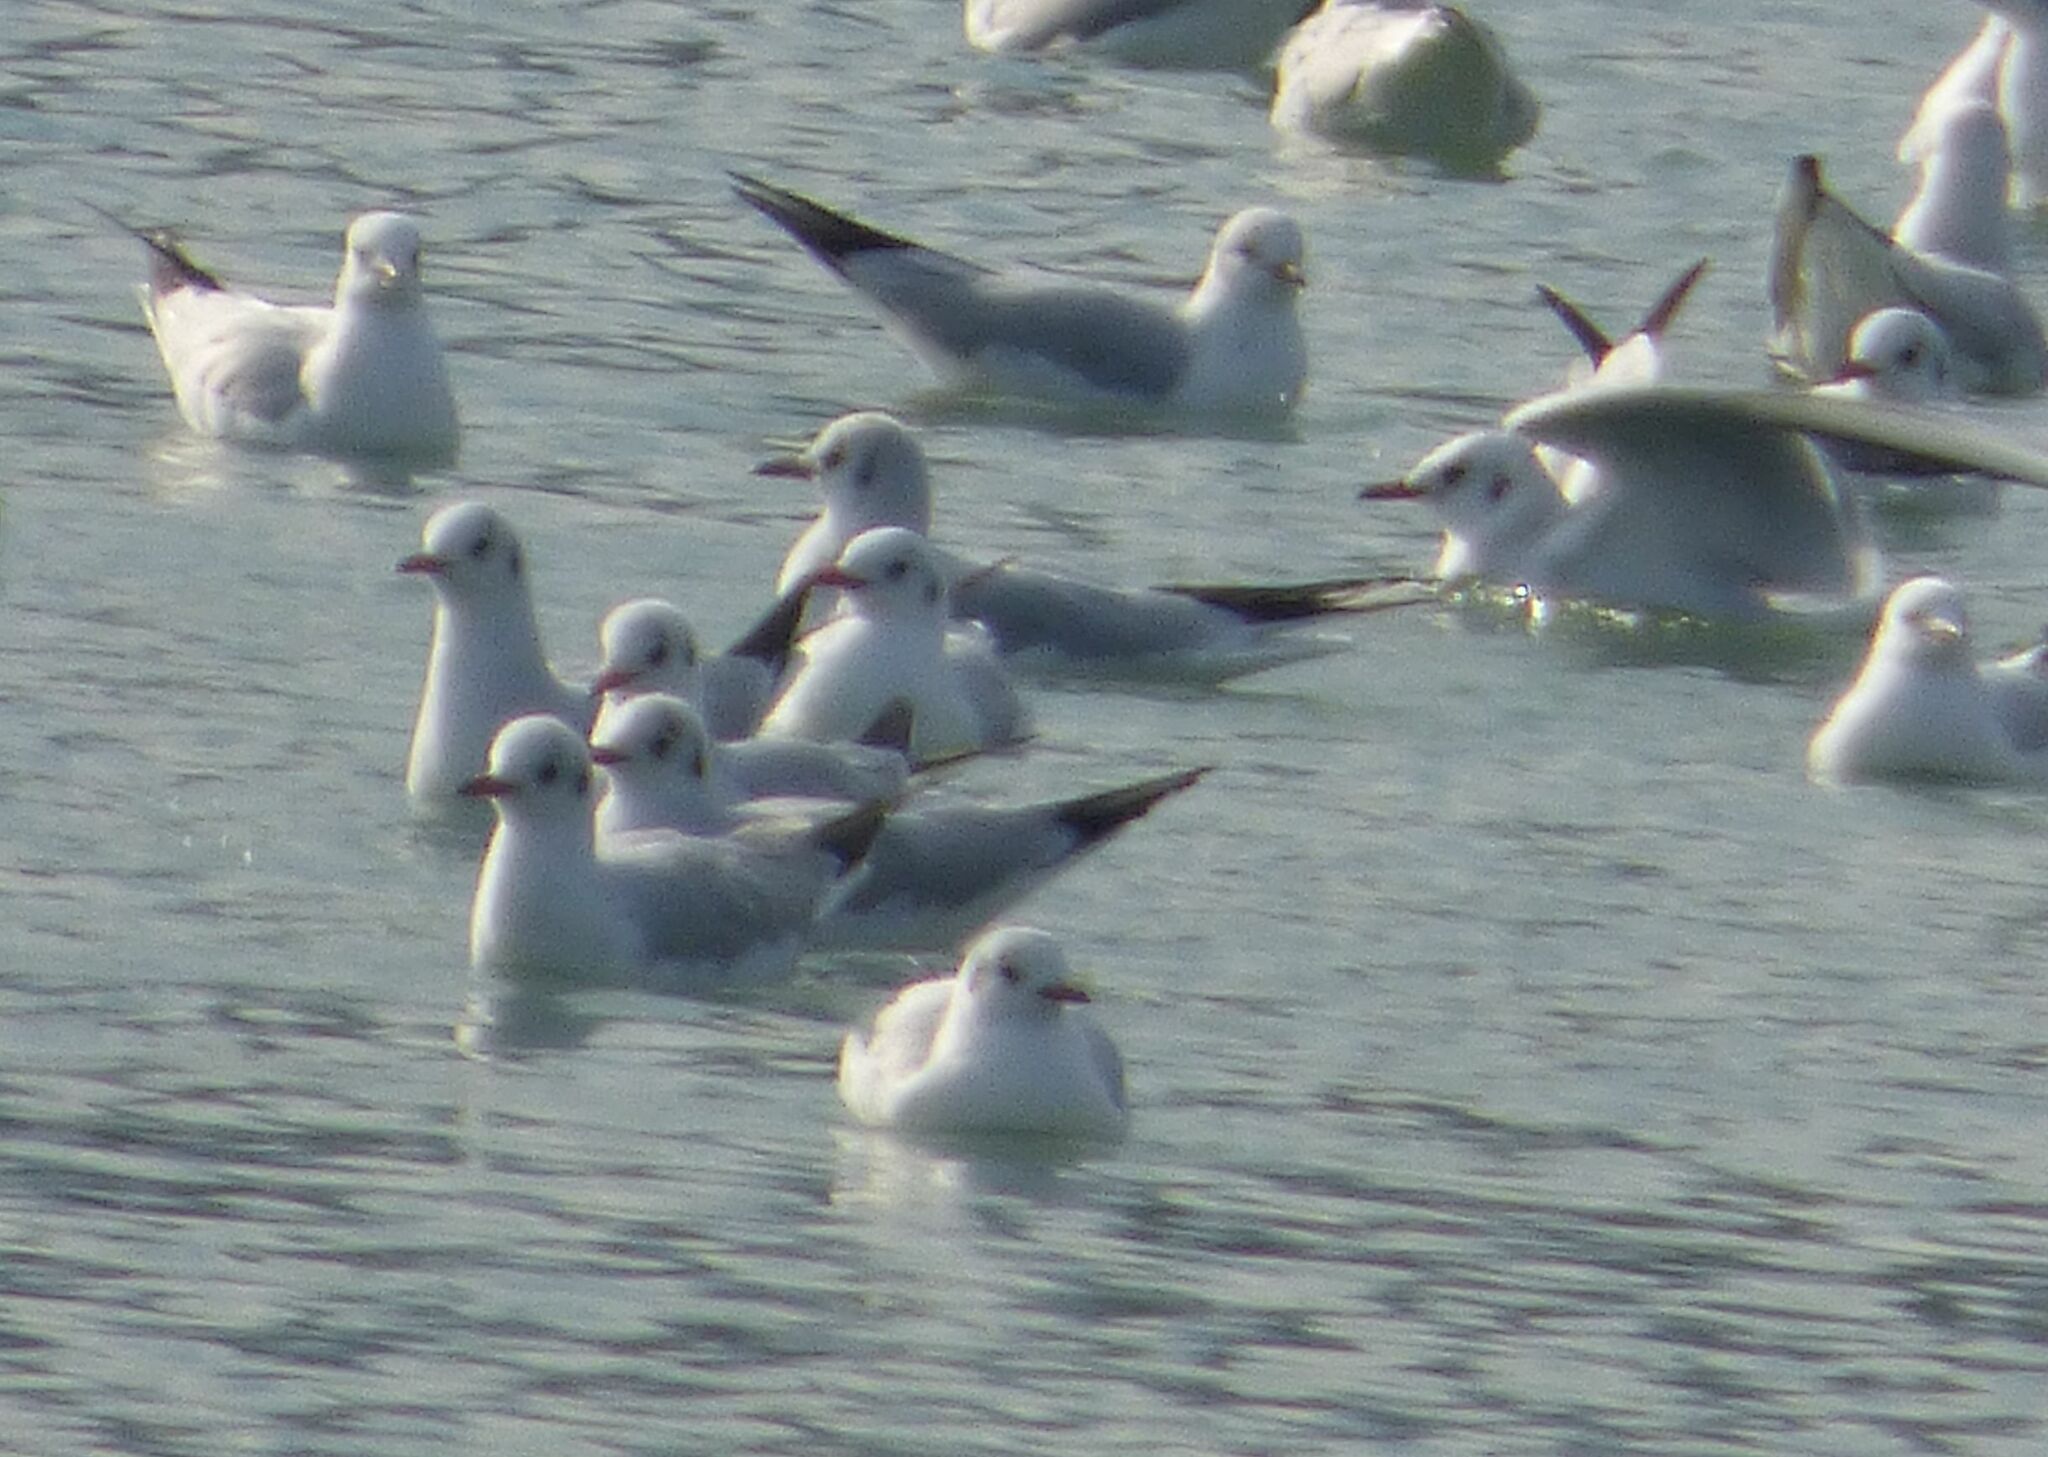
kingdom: Animalia
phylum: Chordata
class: Aves
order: Charadriiformes
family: Laridae
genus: Chroicocephalus
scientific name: Chroicocephalus ridibundus
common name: Black-headed gull
